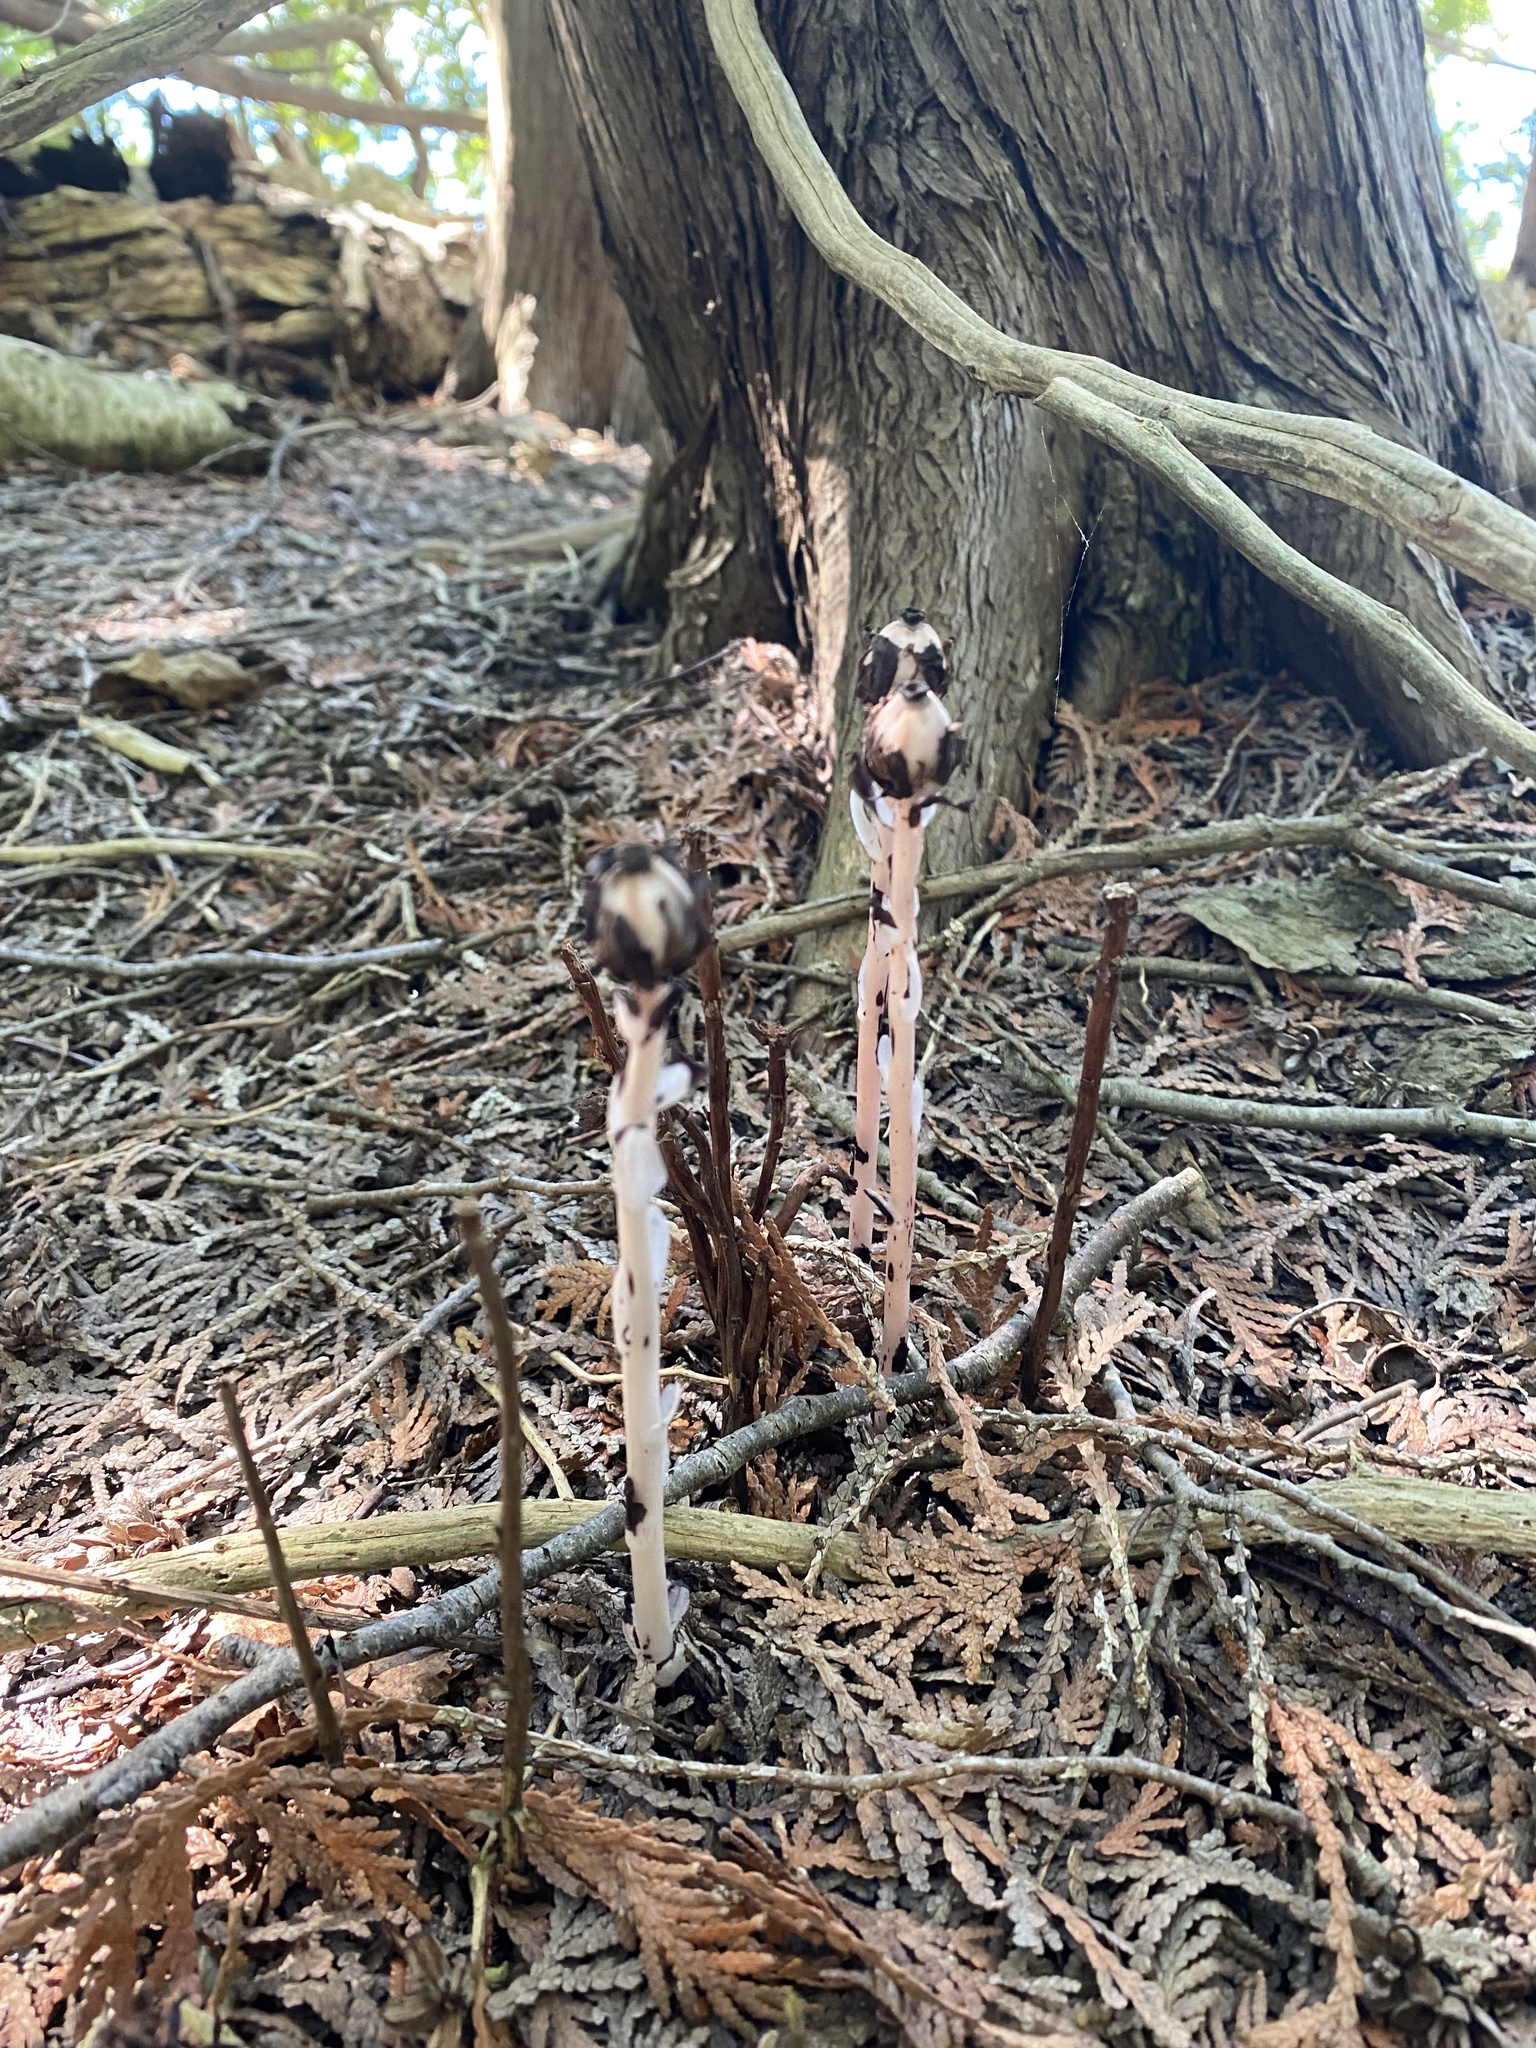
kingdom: Plantae
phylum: Tracheophyta
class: Magnoliopsida
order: Ericales
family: Ericaceae
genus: Monotropa
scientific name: Monotropa uniflora
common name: Convulsion root
